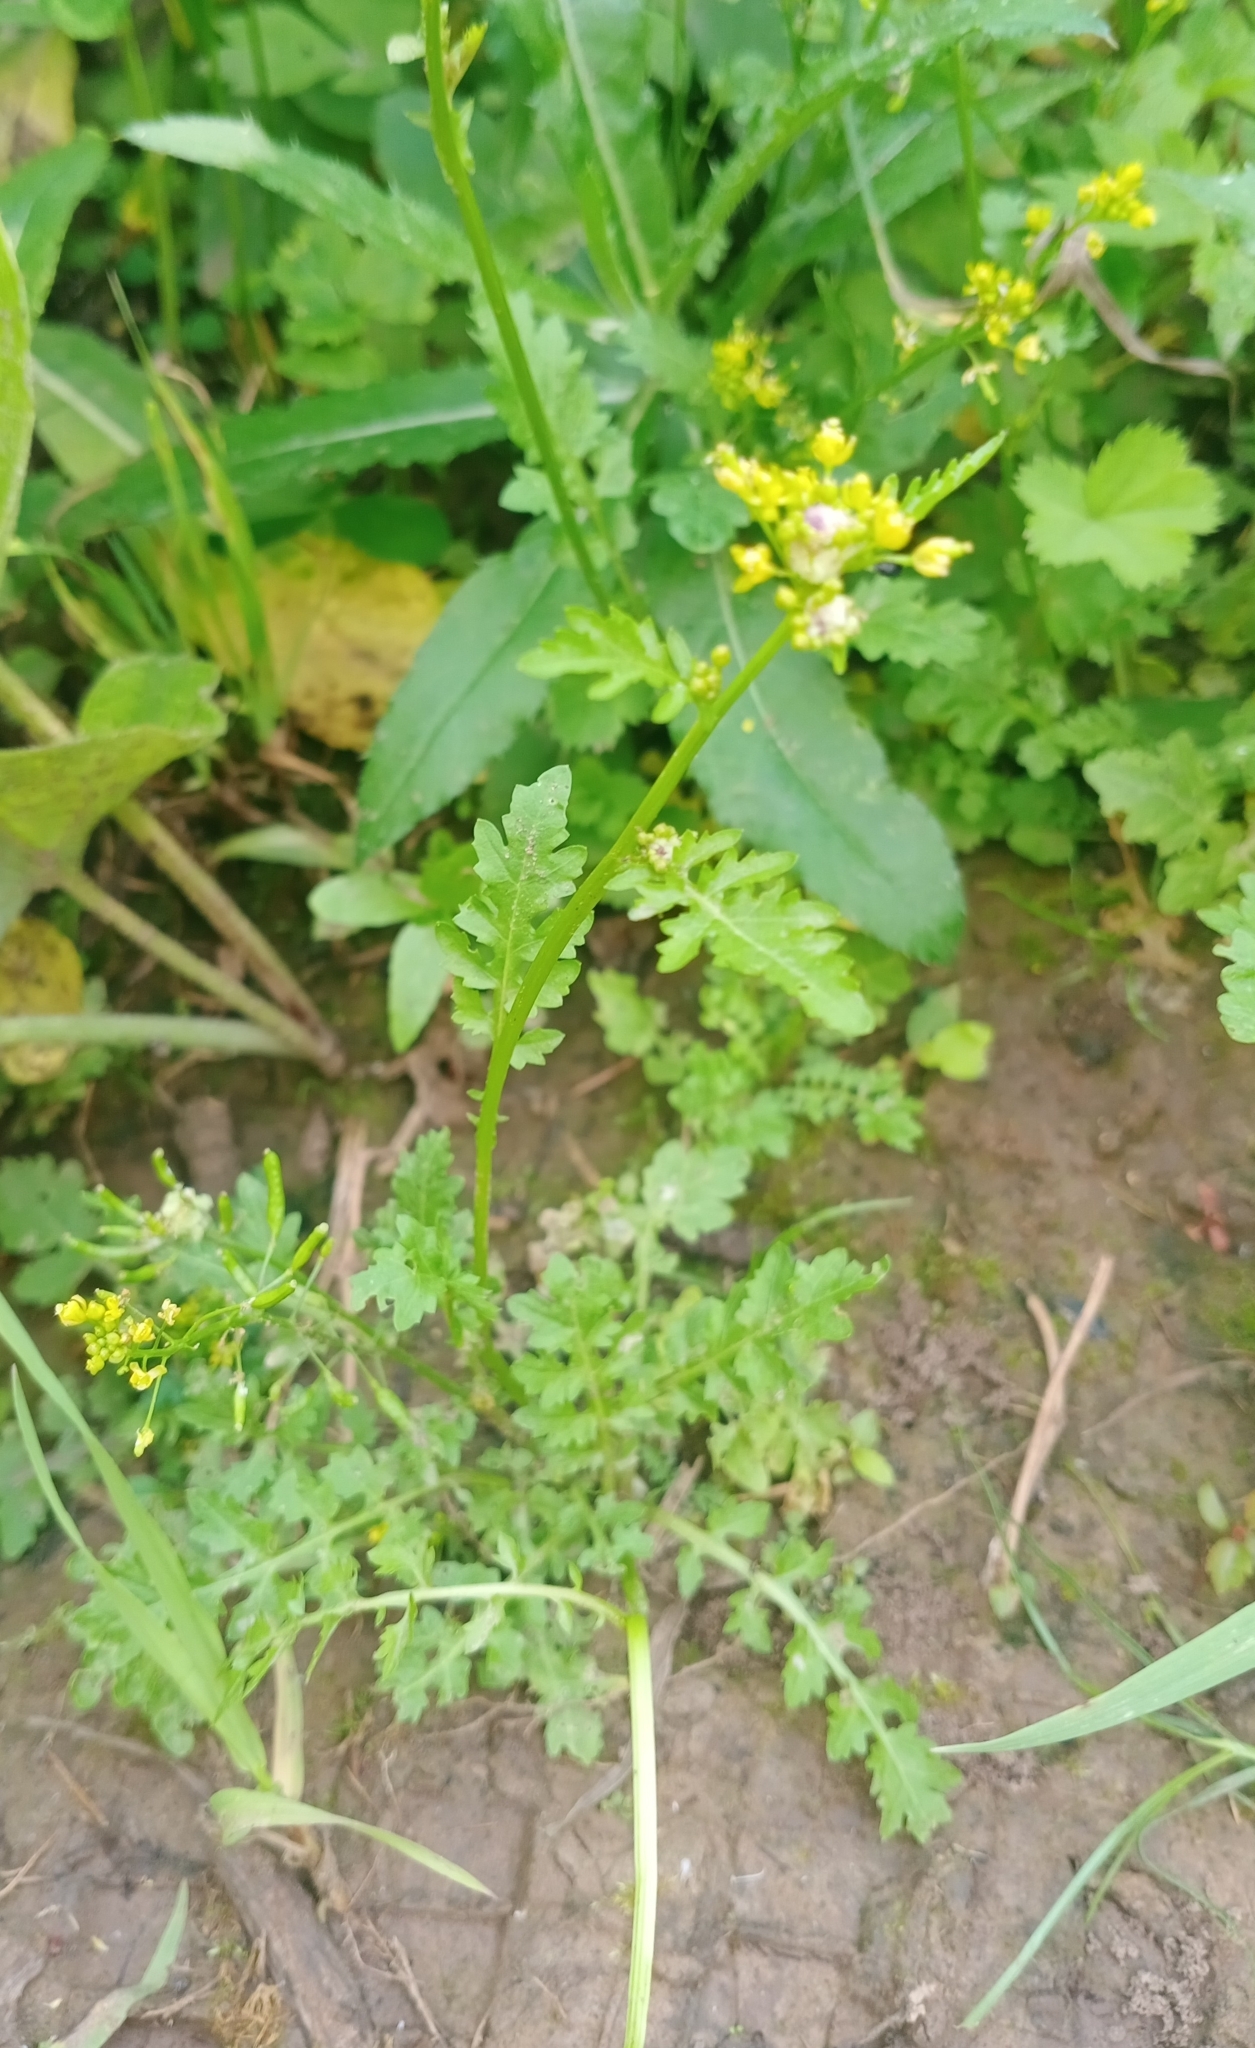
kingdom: Plantae
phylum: Tracheophyta
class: Magnoliopsida
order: Brassicales
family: Brassicaceae
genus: Rorippa
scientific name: Rorippa palustris
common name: Marsh yellow-cress
